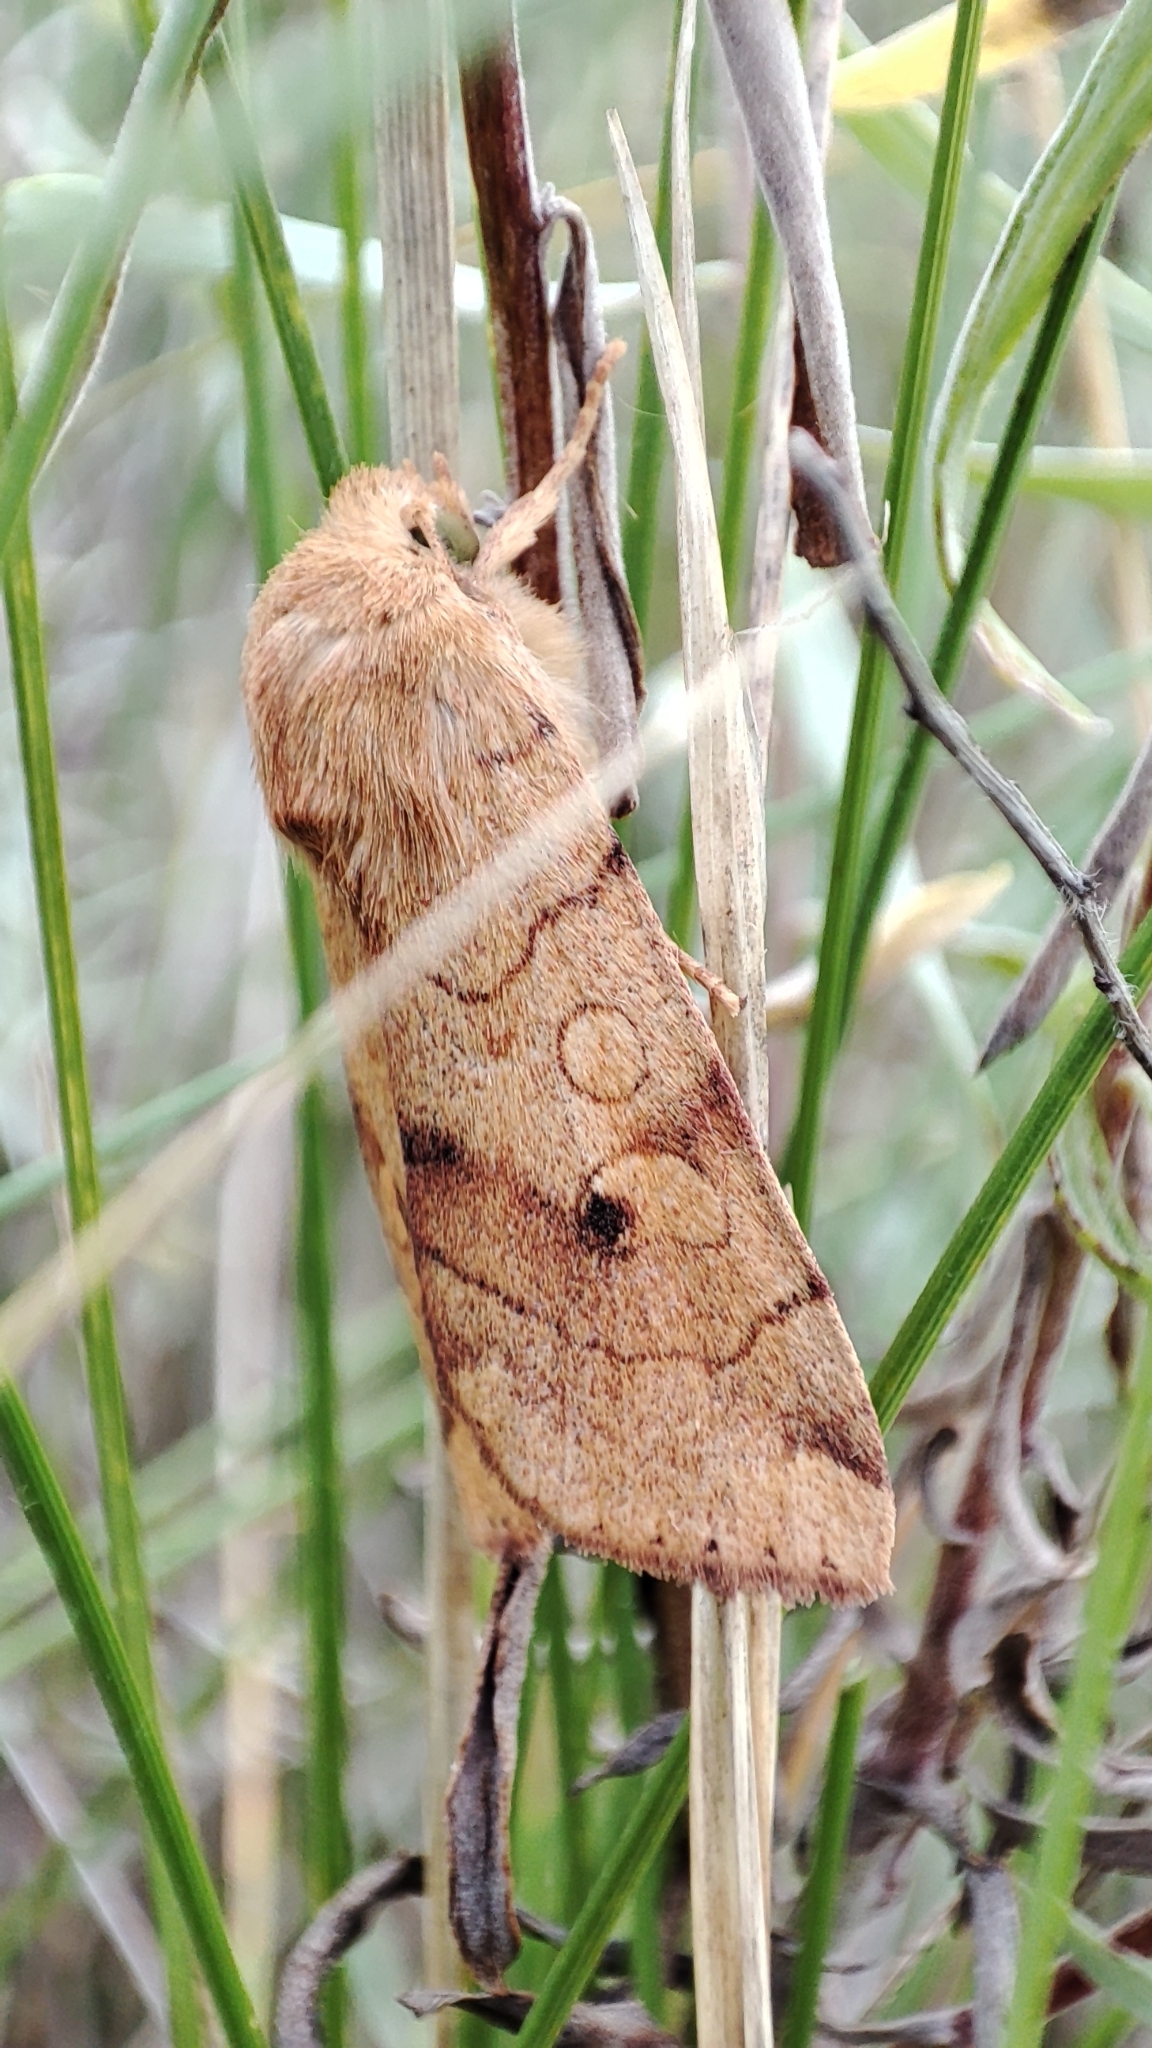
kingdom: Animalia
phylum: Arthropoda
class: Insecta
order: Lepidoptera
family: Noctuidae
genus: Enargia
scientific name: Enargia paleacea
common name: Angle-striped sallow
